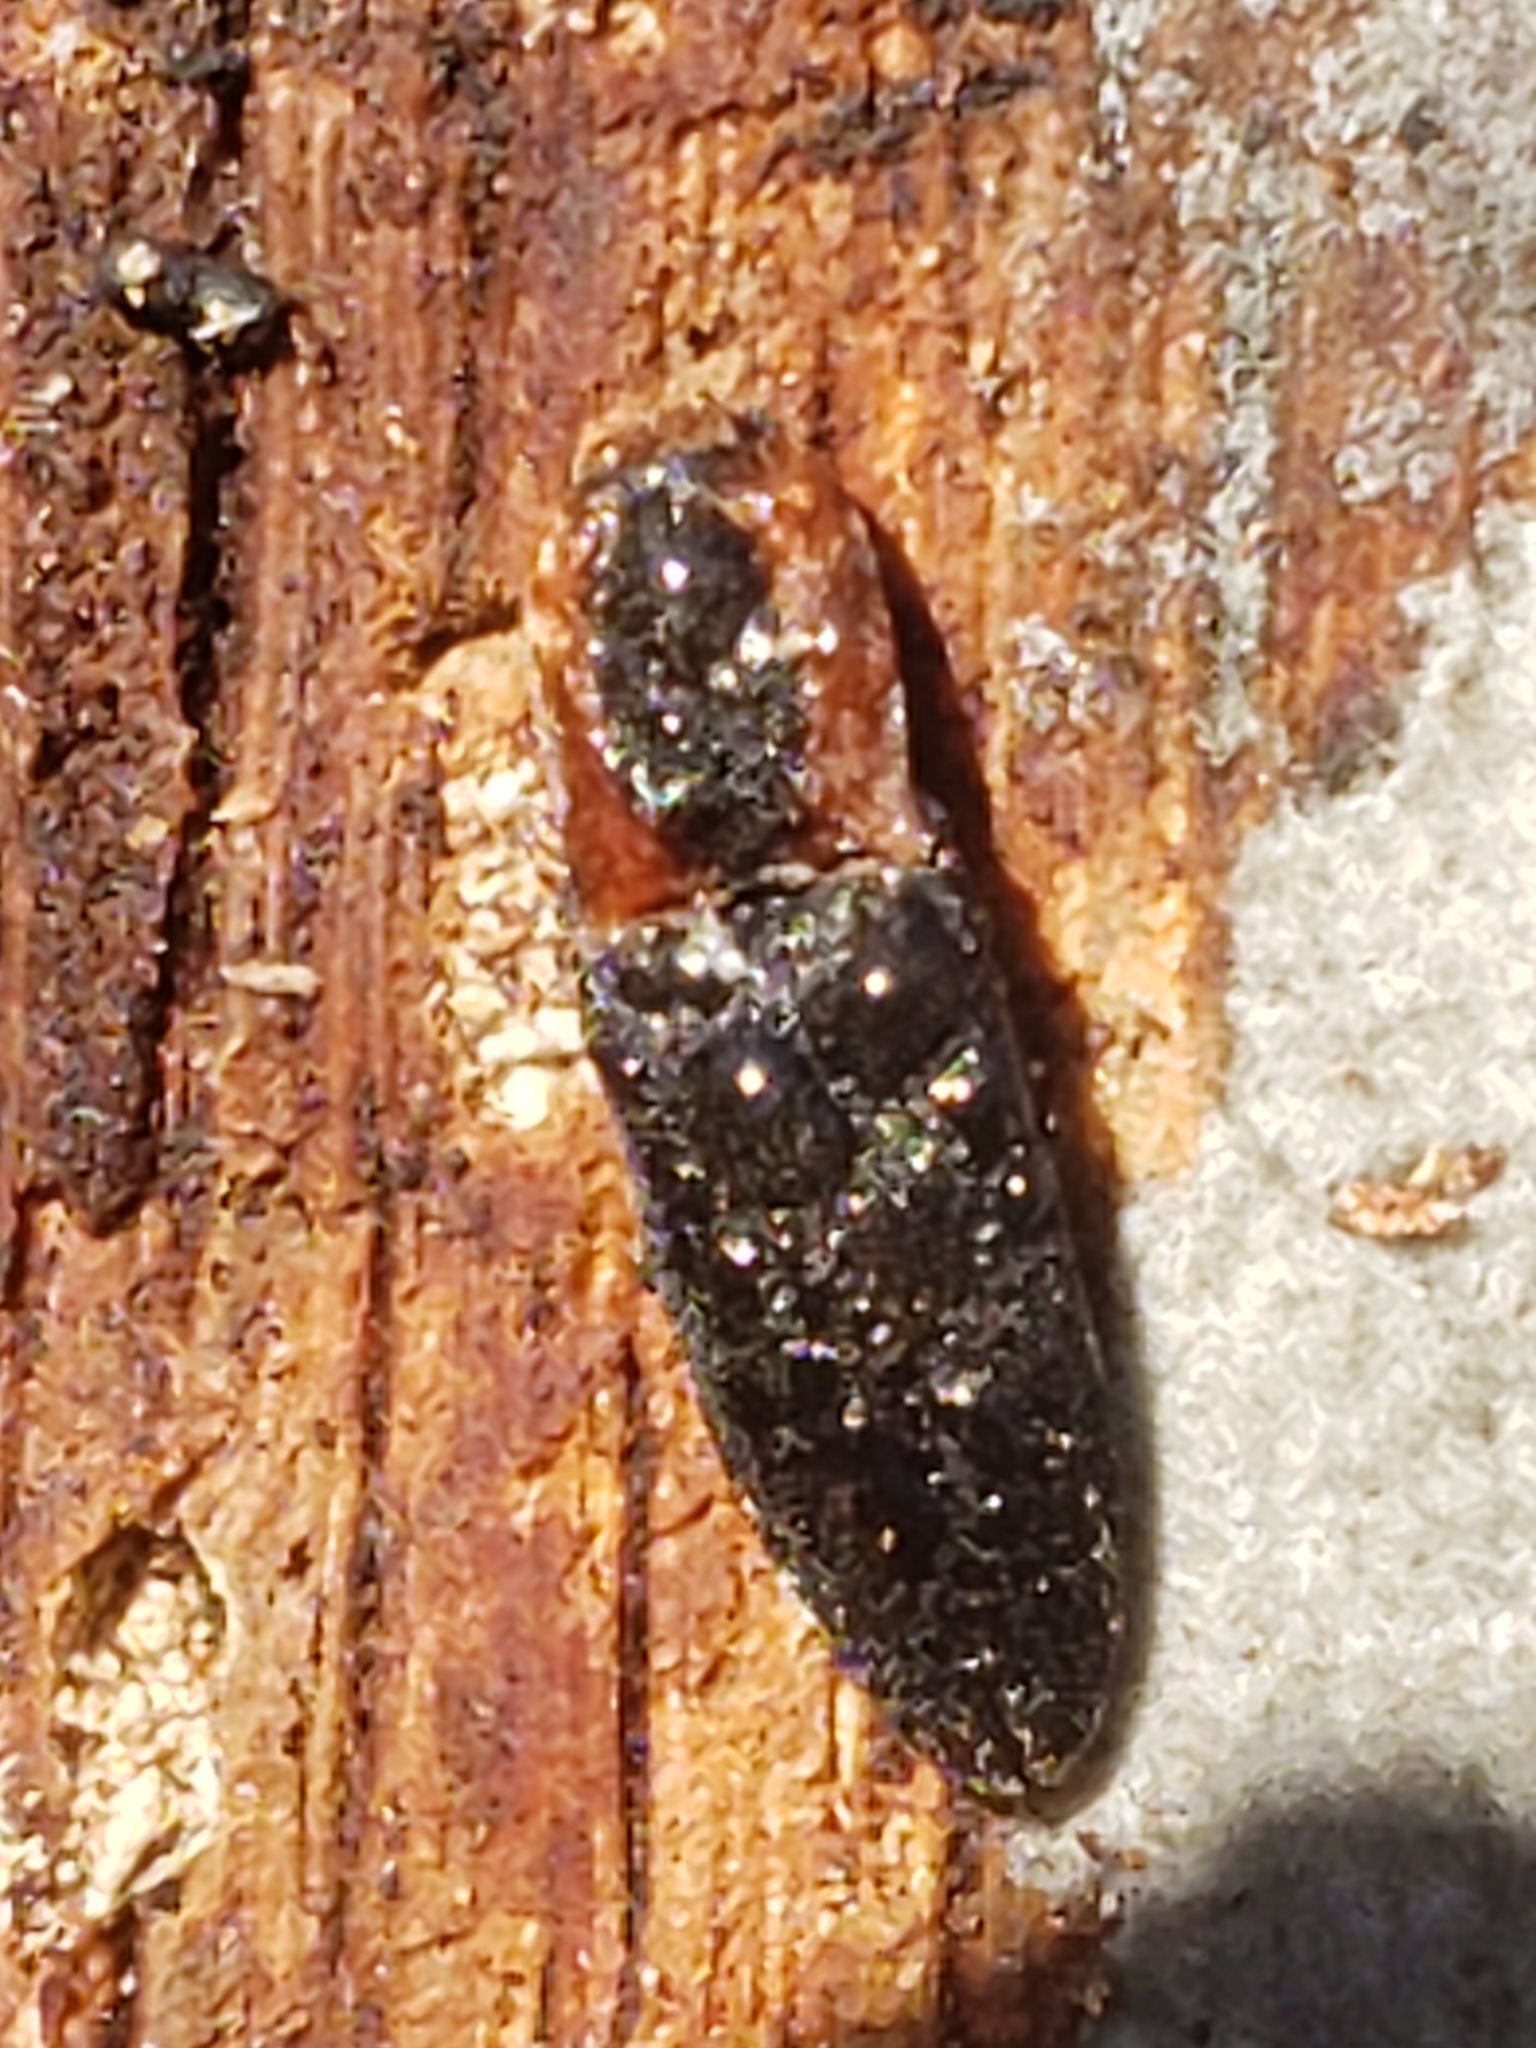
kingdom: Animalia
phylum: Arthropoda
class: Insecta
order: Coleoptera
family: Elateridae
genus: Lacon
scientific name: Lacon discoideus
